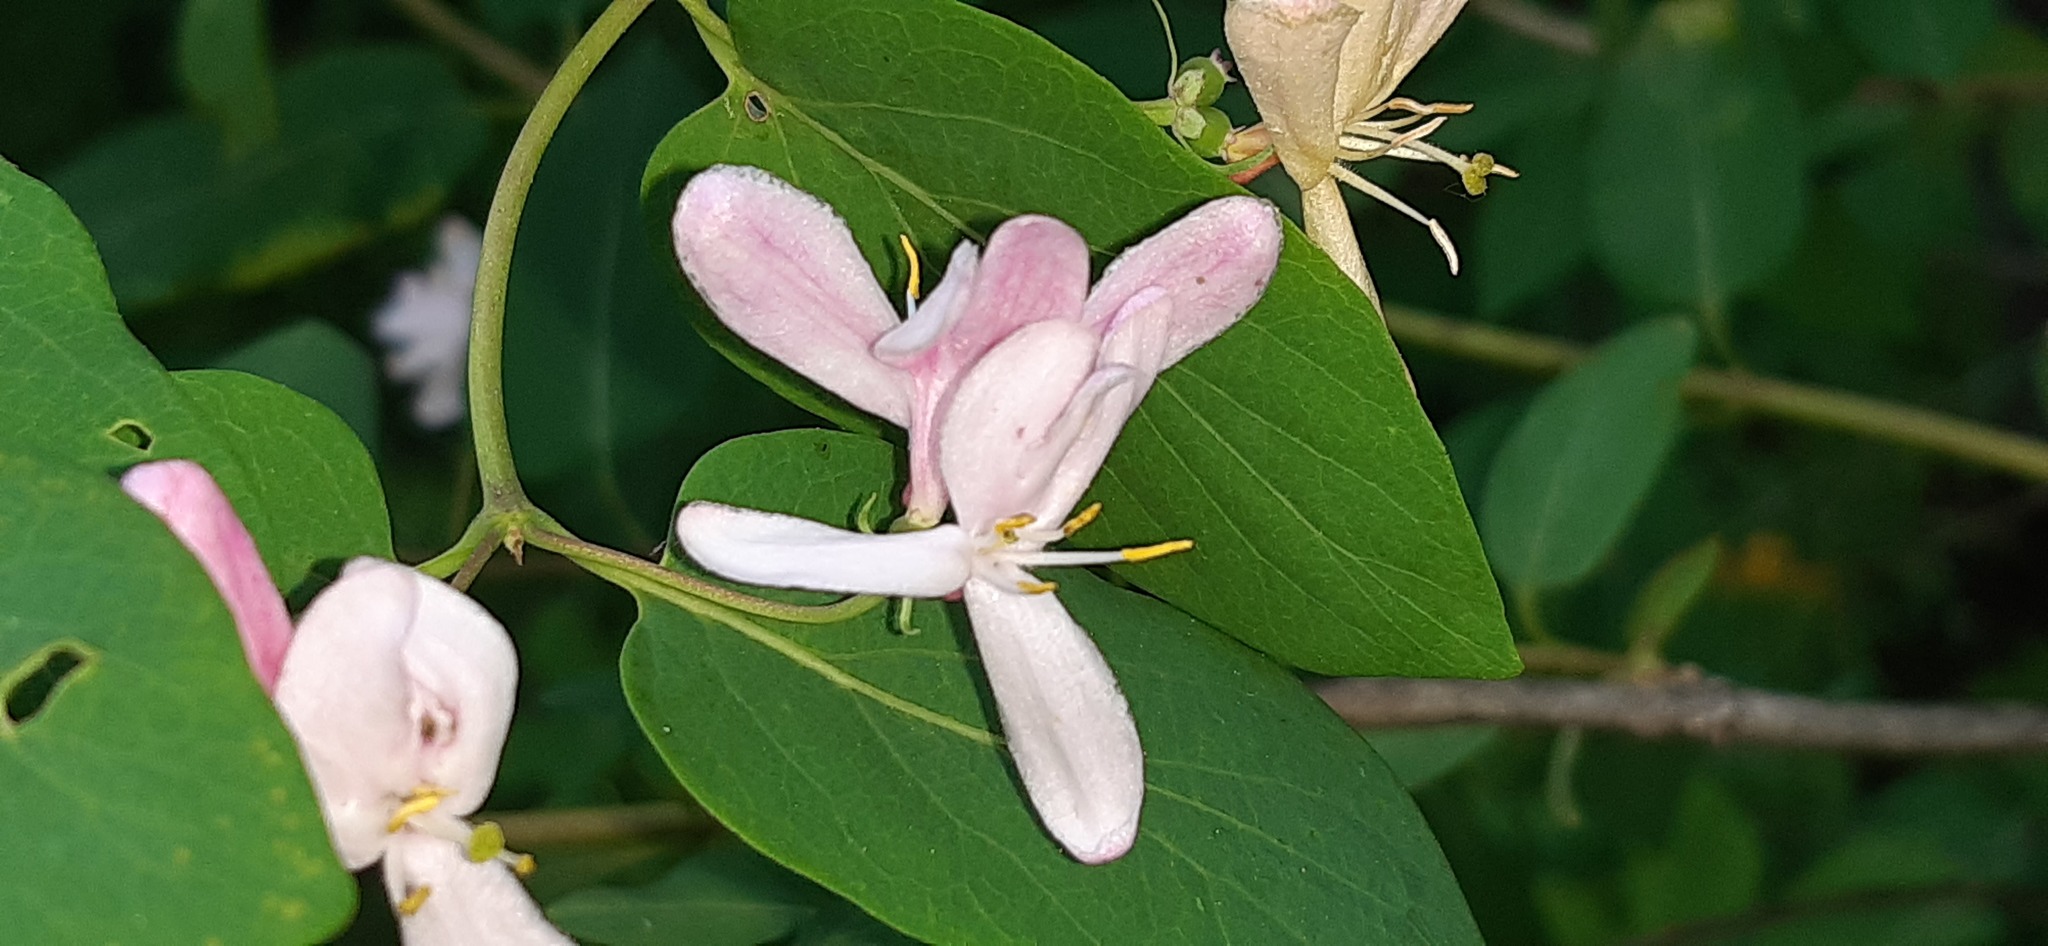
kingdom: Plantae
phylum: Tracheophyta
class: Magnoliopsida
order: Dipsacales
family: Caprifoliaceae
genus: Lonicera
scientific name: Lonicera tatarica
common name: Tatarian honeysuckle
